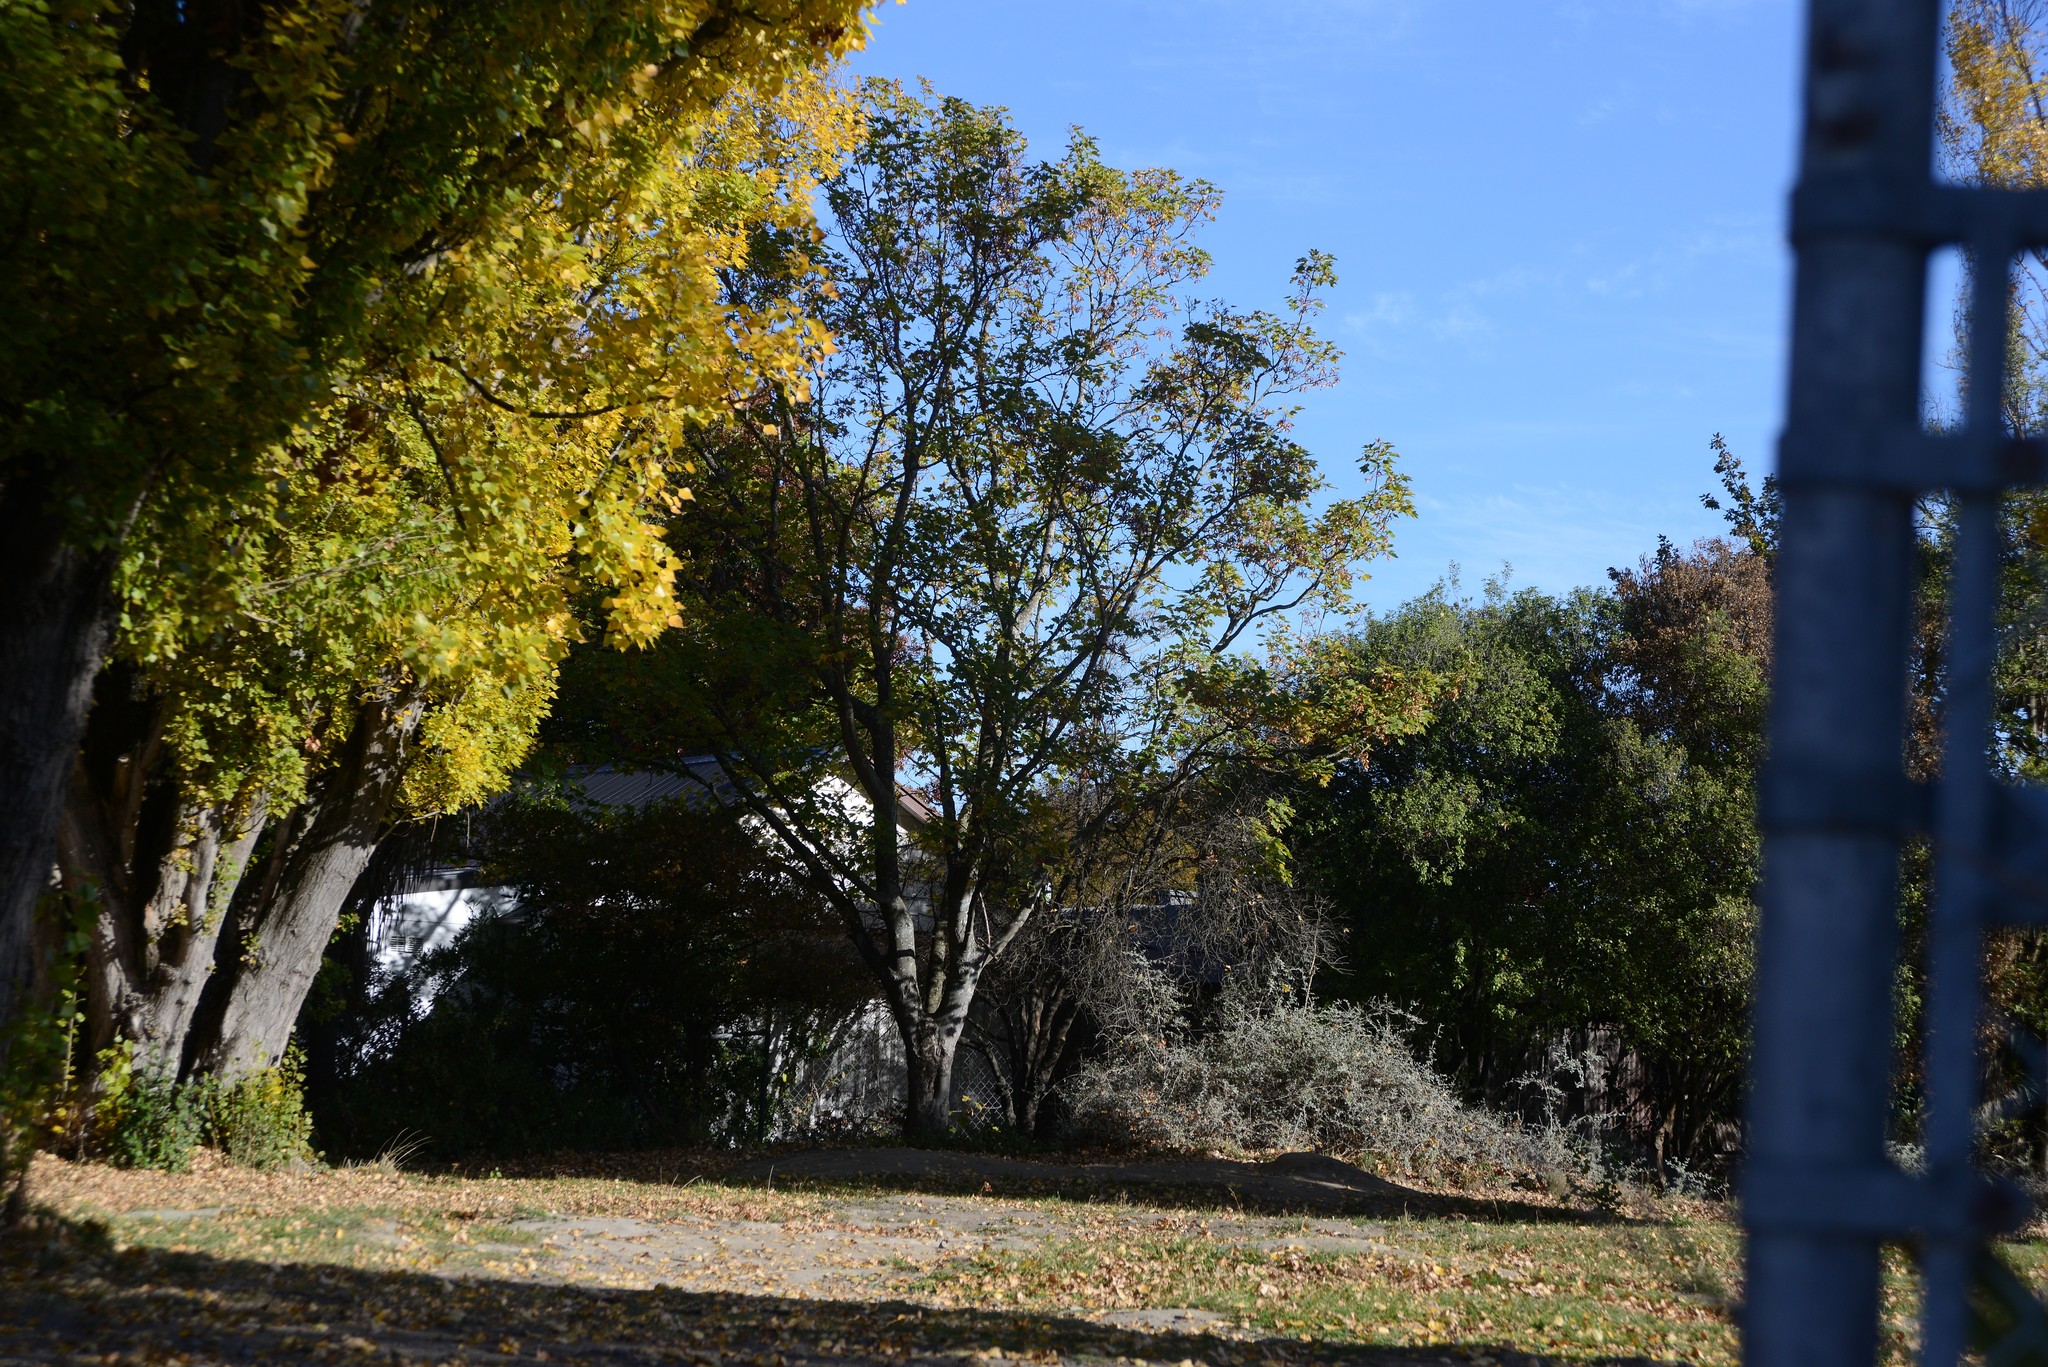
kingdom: Plantae
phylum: Tracheophyta
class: Magnoliopsida
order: Sapindales
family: Sapindaceae
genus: Acer
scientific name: Acer pseudoplatanus
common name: Sycamore
